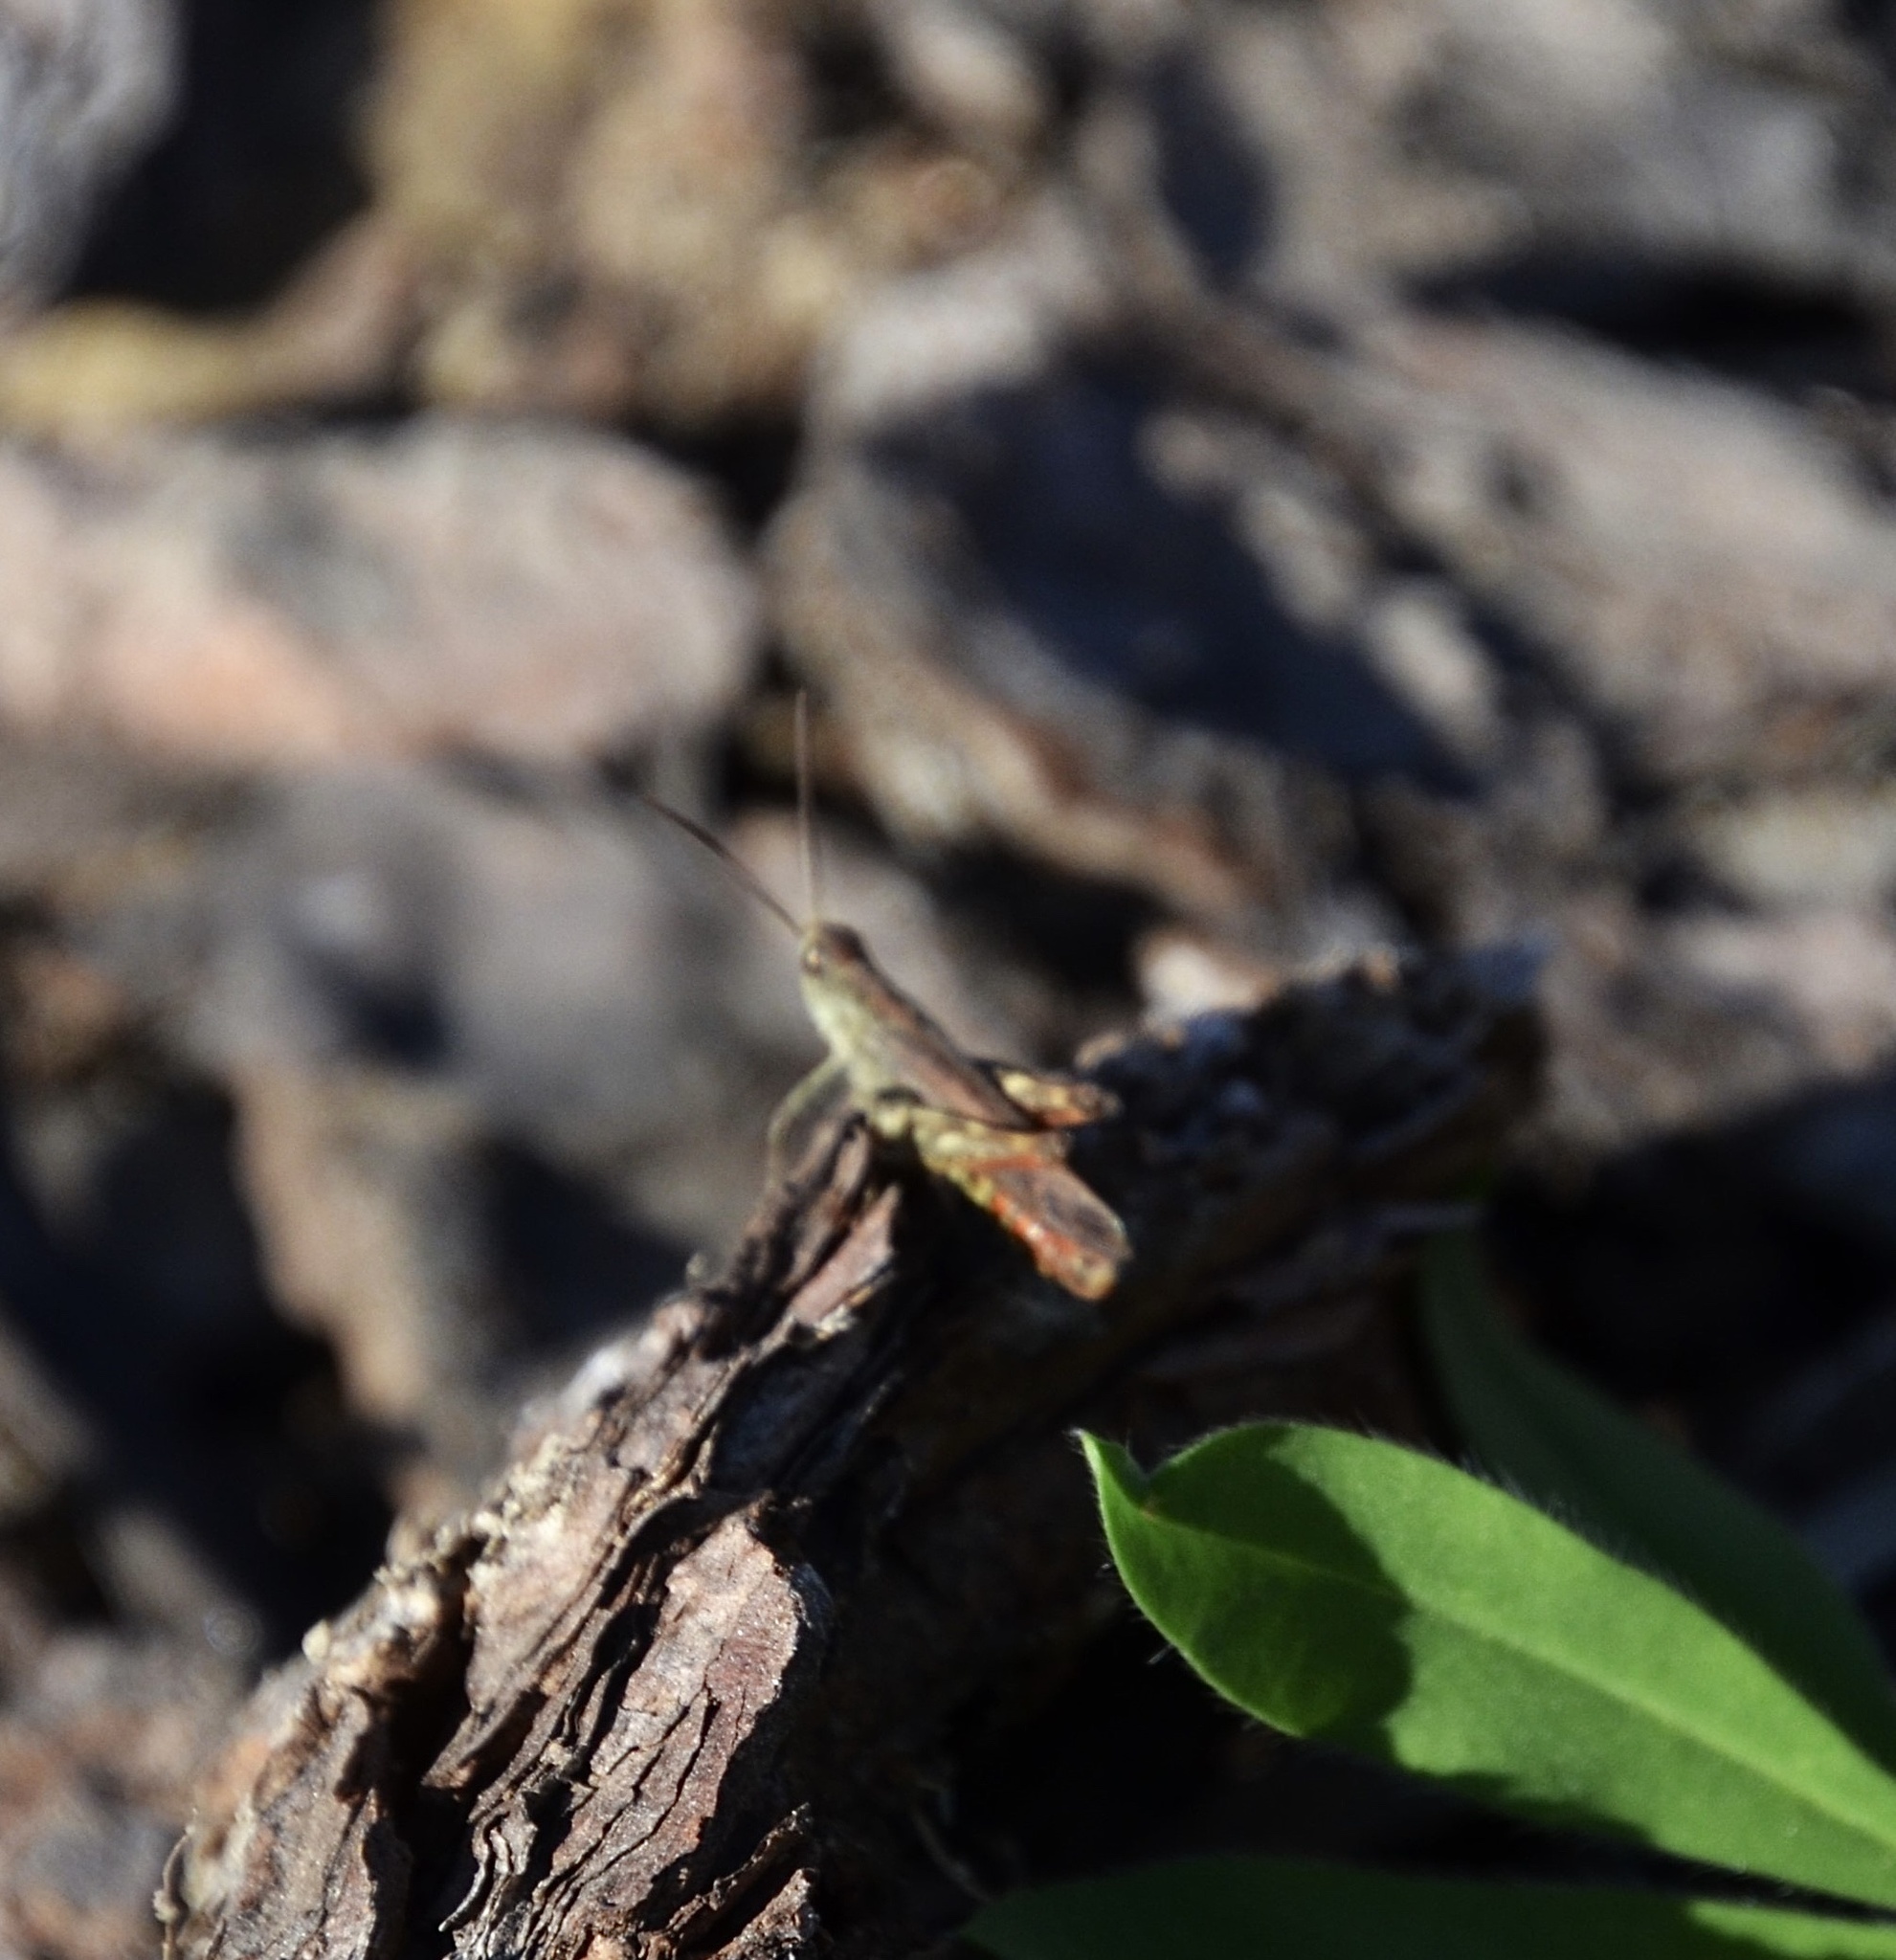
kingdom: Animalia
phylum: Arthropoda
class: Insecta
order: Orthoptera
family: Acrididae
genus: Chorthippus
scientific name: Chorthippus biguttulus
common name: Bow-winged grasshopper
